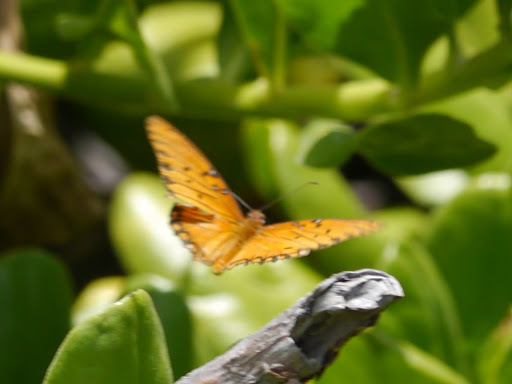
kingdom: Animalia
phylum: Arthropoda
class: Insecta
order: Lepidoptera
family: Nymphalidae
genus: Dione
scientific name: Dione vanillae
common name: Gulf fritillary
